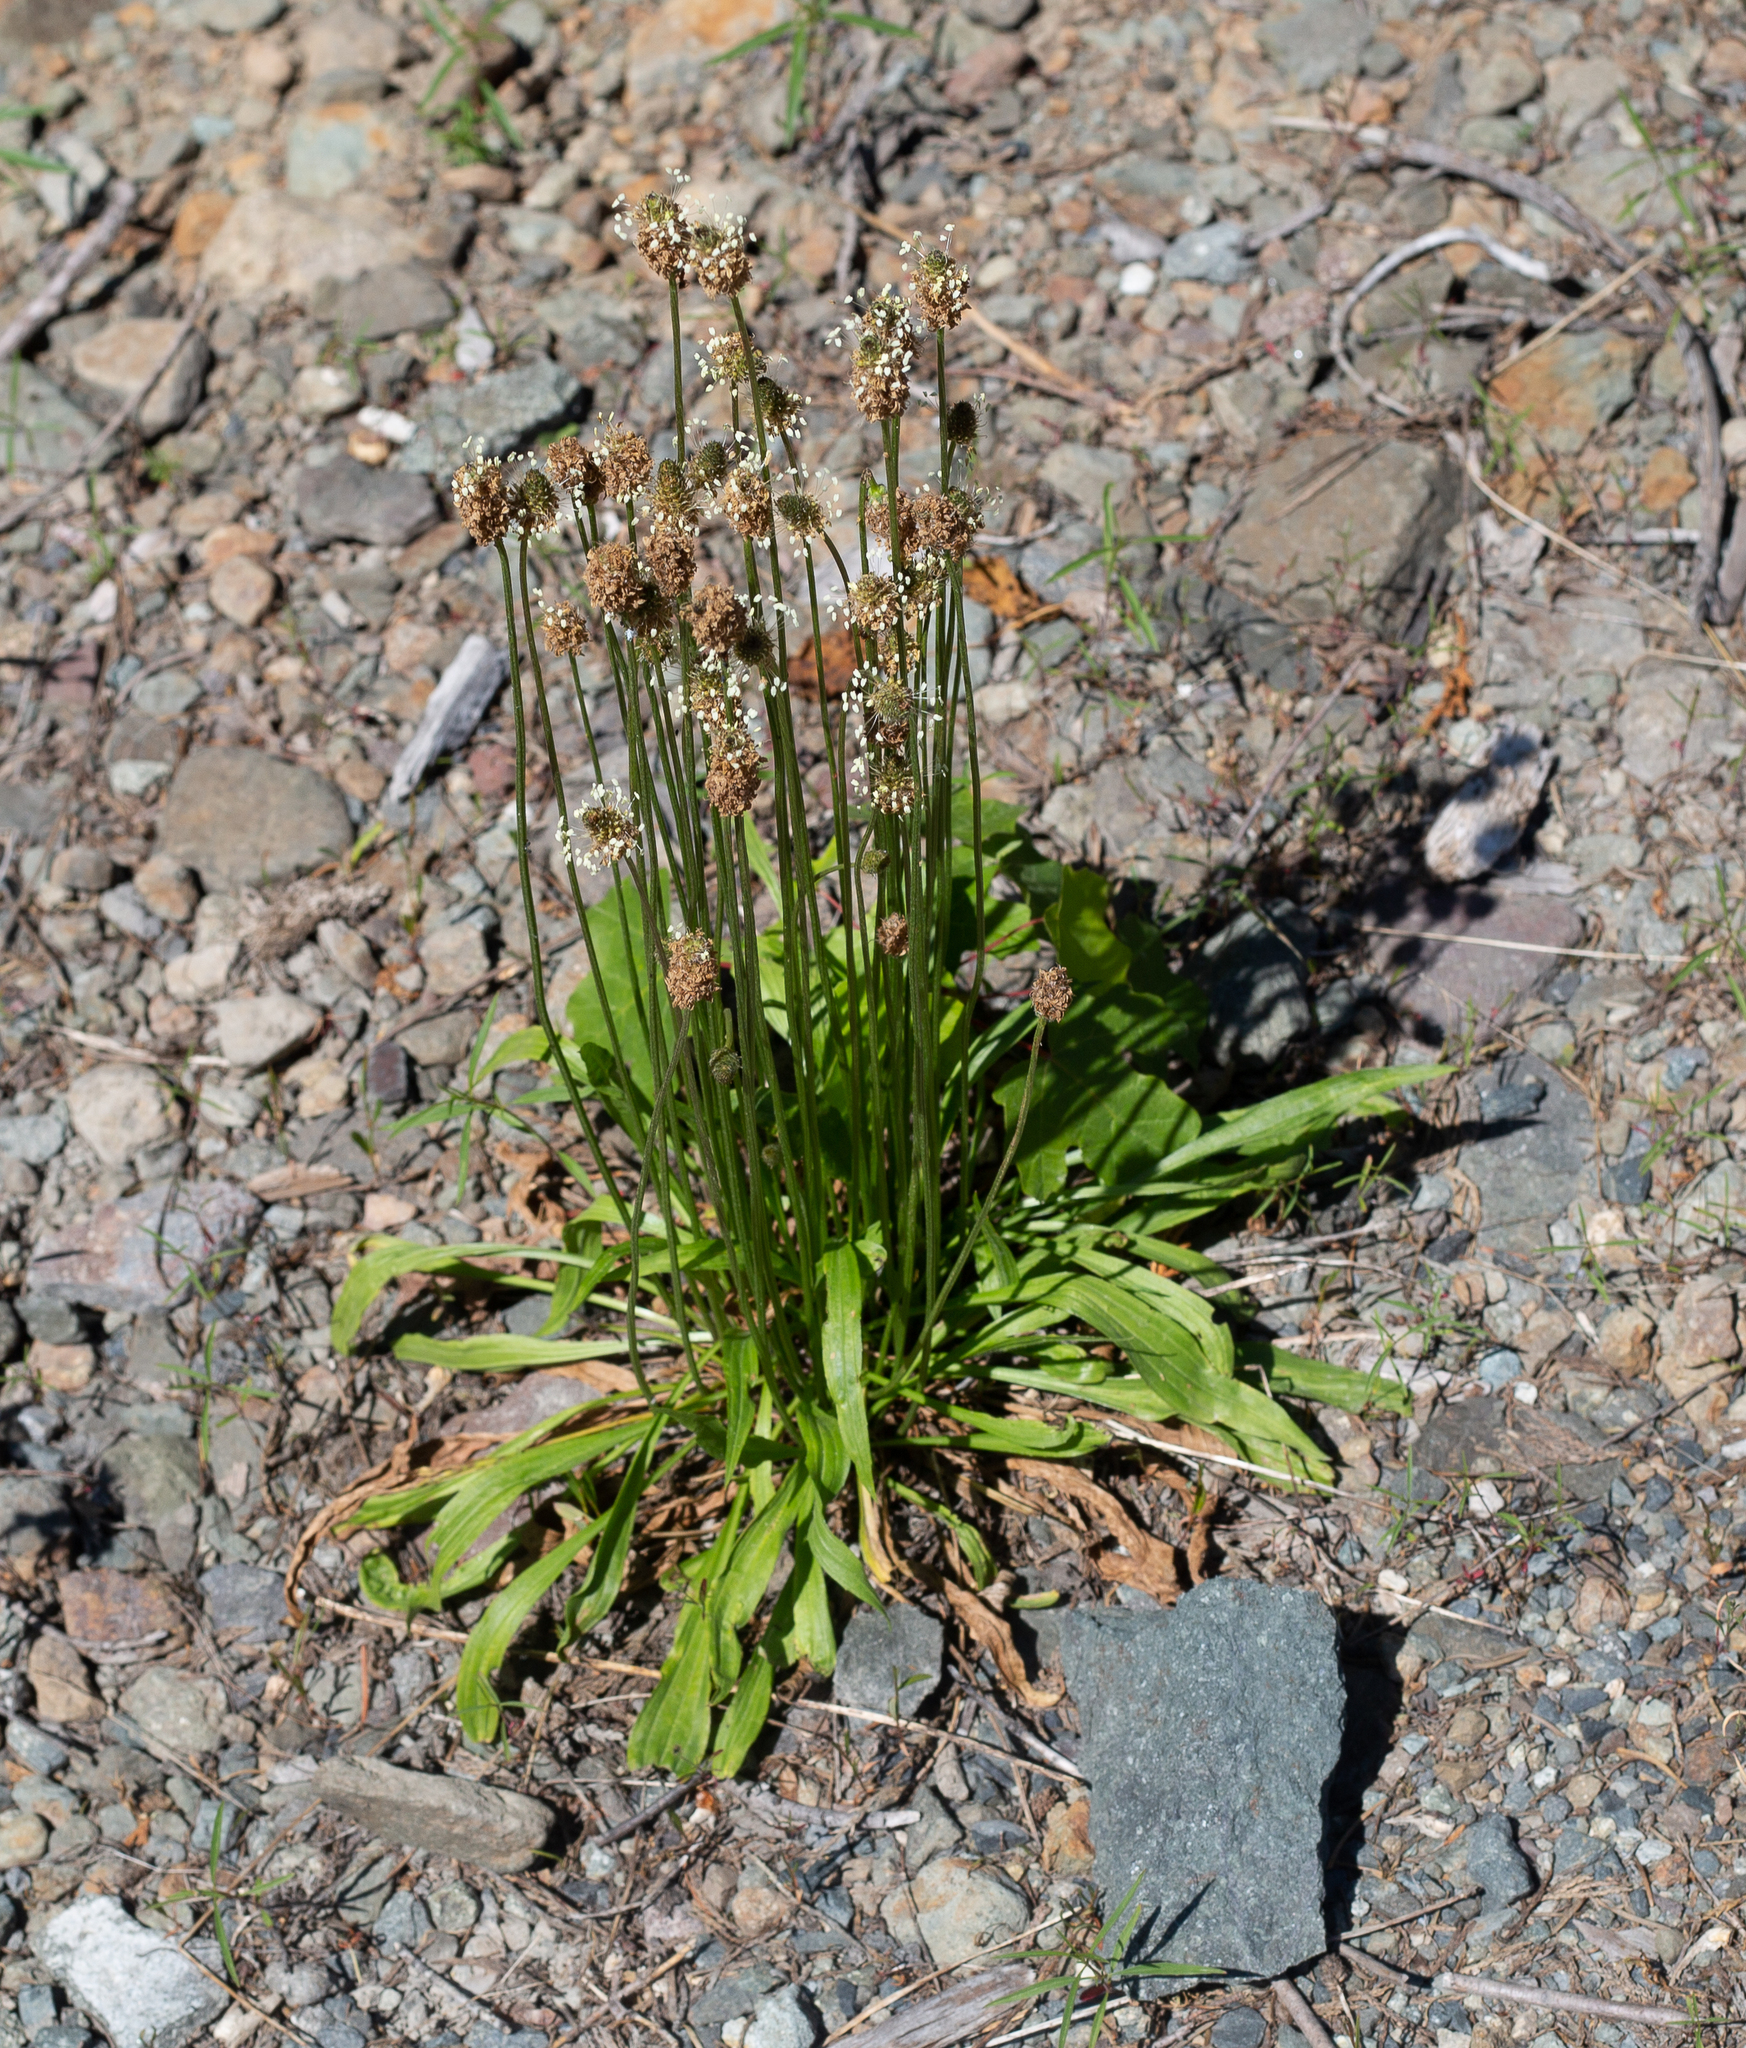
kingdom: Plantae
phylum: Tracheophyta
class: Magnoliopsida
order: Lamiales
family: Plantaginaceae
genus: Plantago
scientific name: Plantago lanceolata
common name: Ribwort plantain
